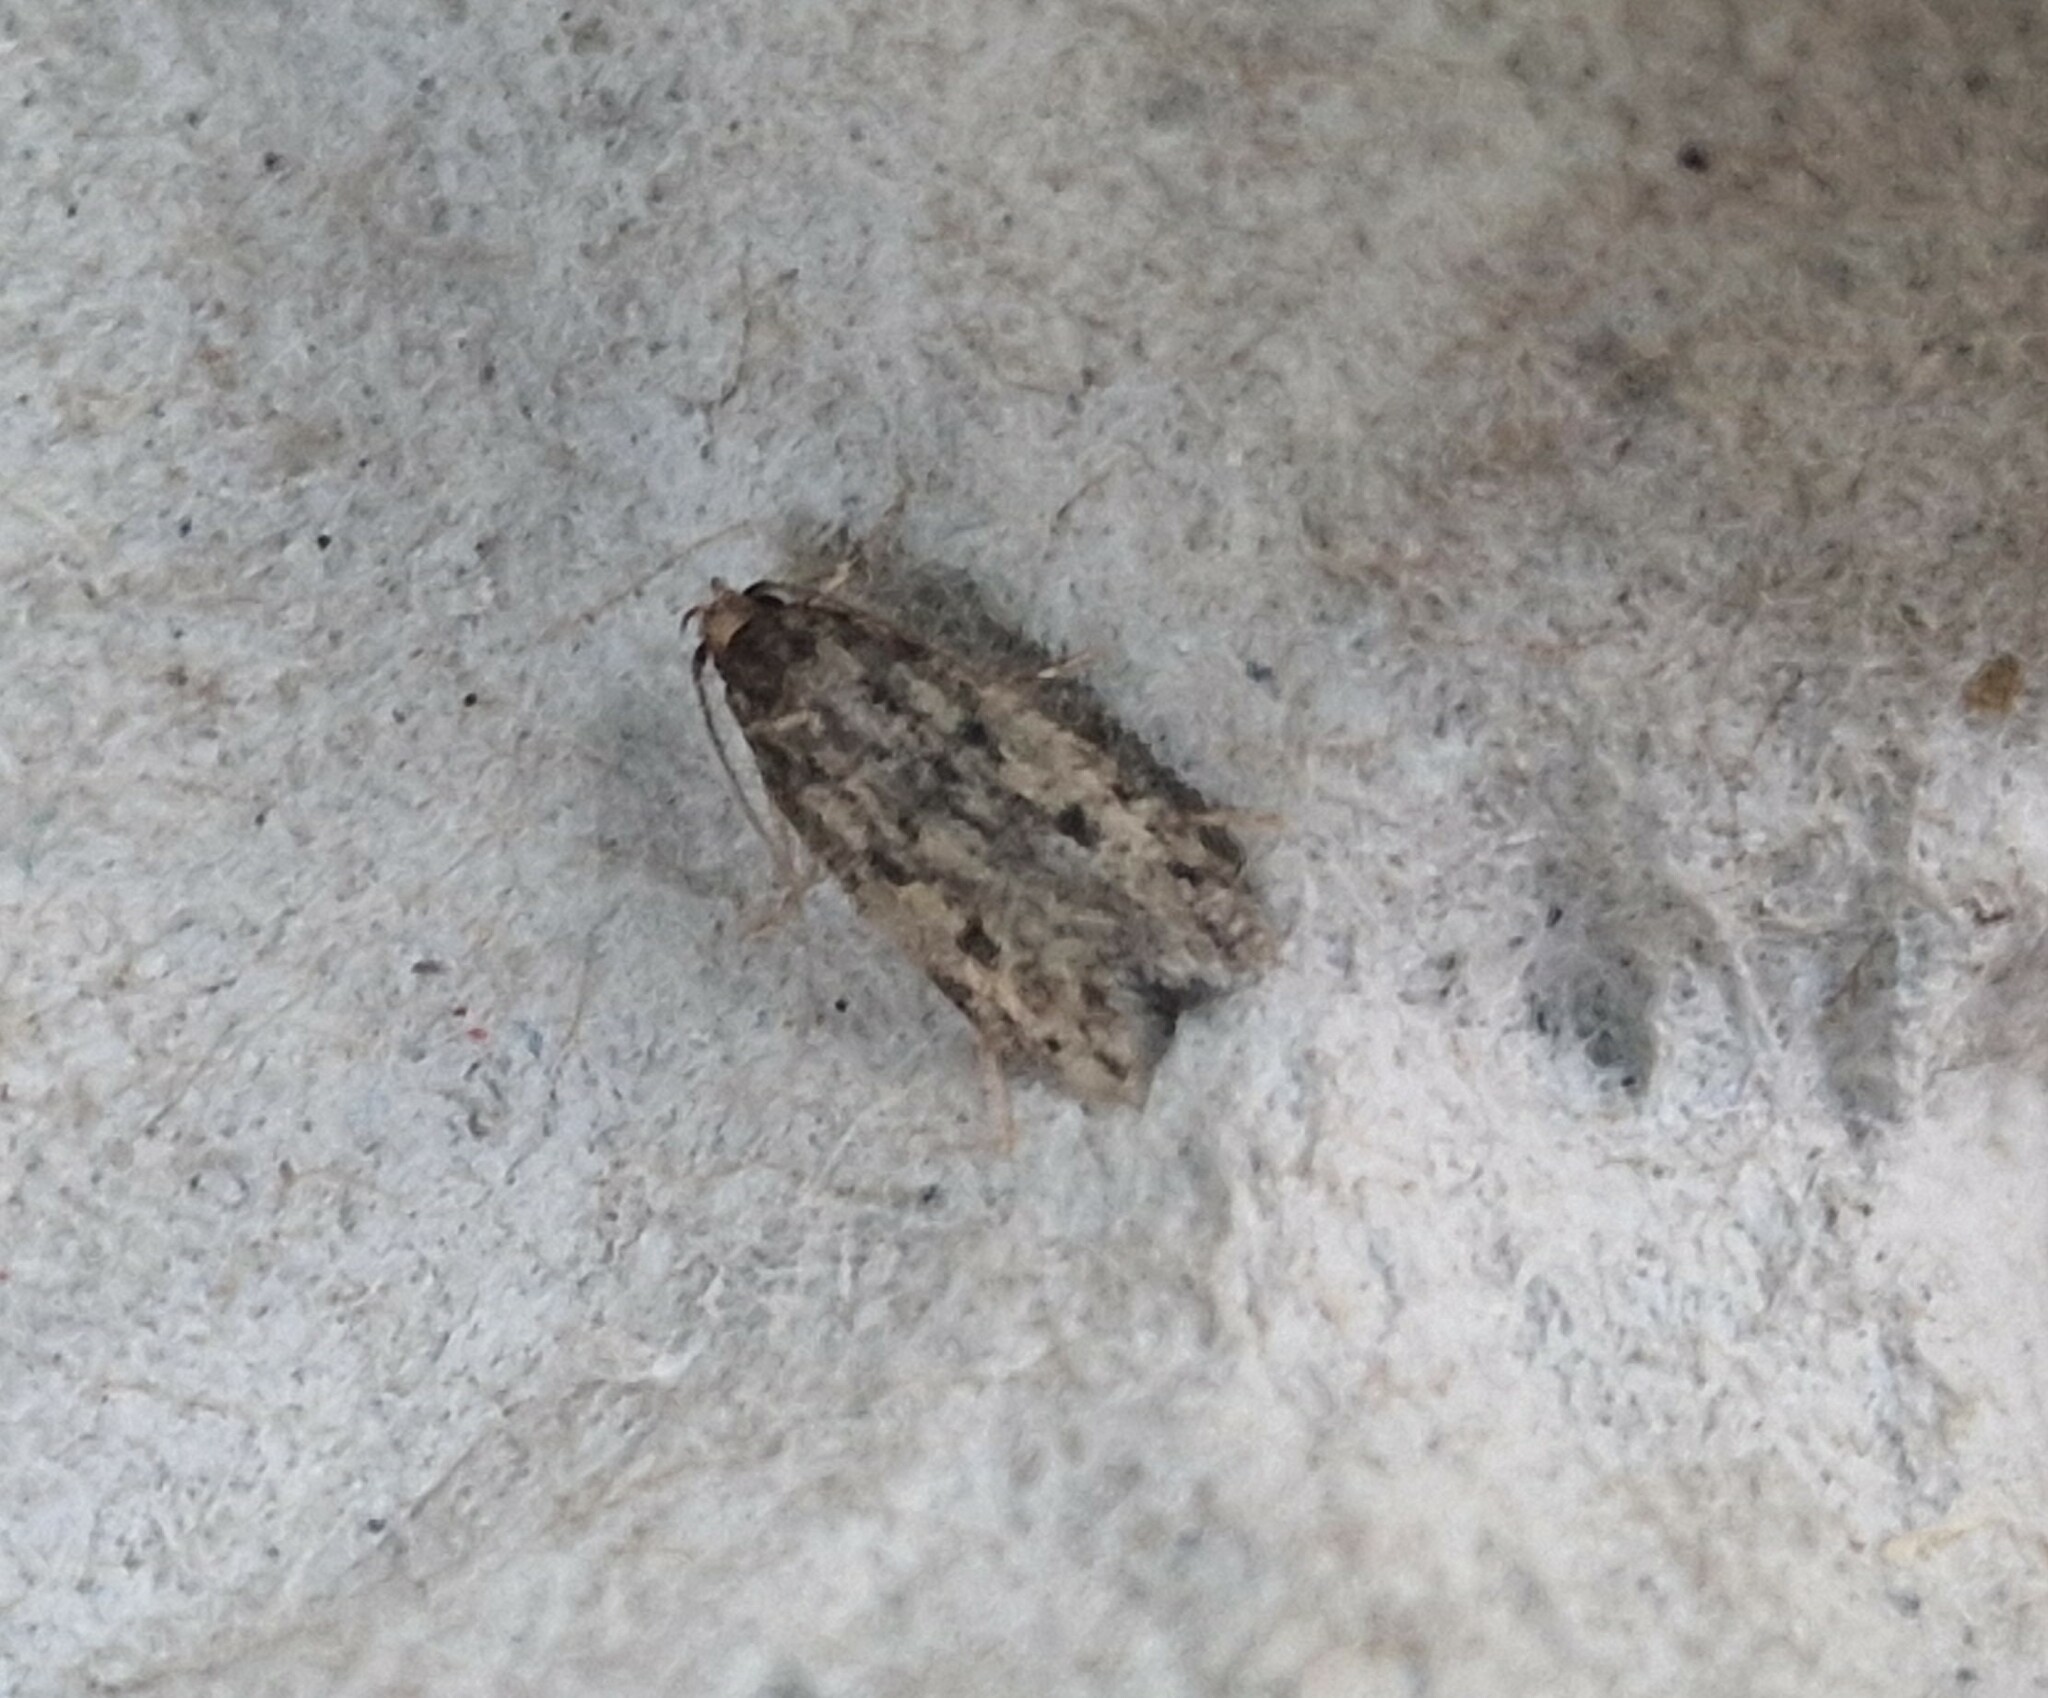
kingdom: Animalia
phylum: Arthropoda
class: Insecta
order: Lepidoptera
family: Oecophoridae
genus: Hofmannophila
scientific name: Hofmannophila pseudospretella
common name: Brown house moth
